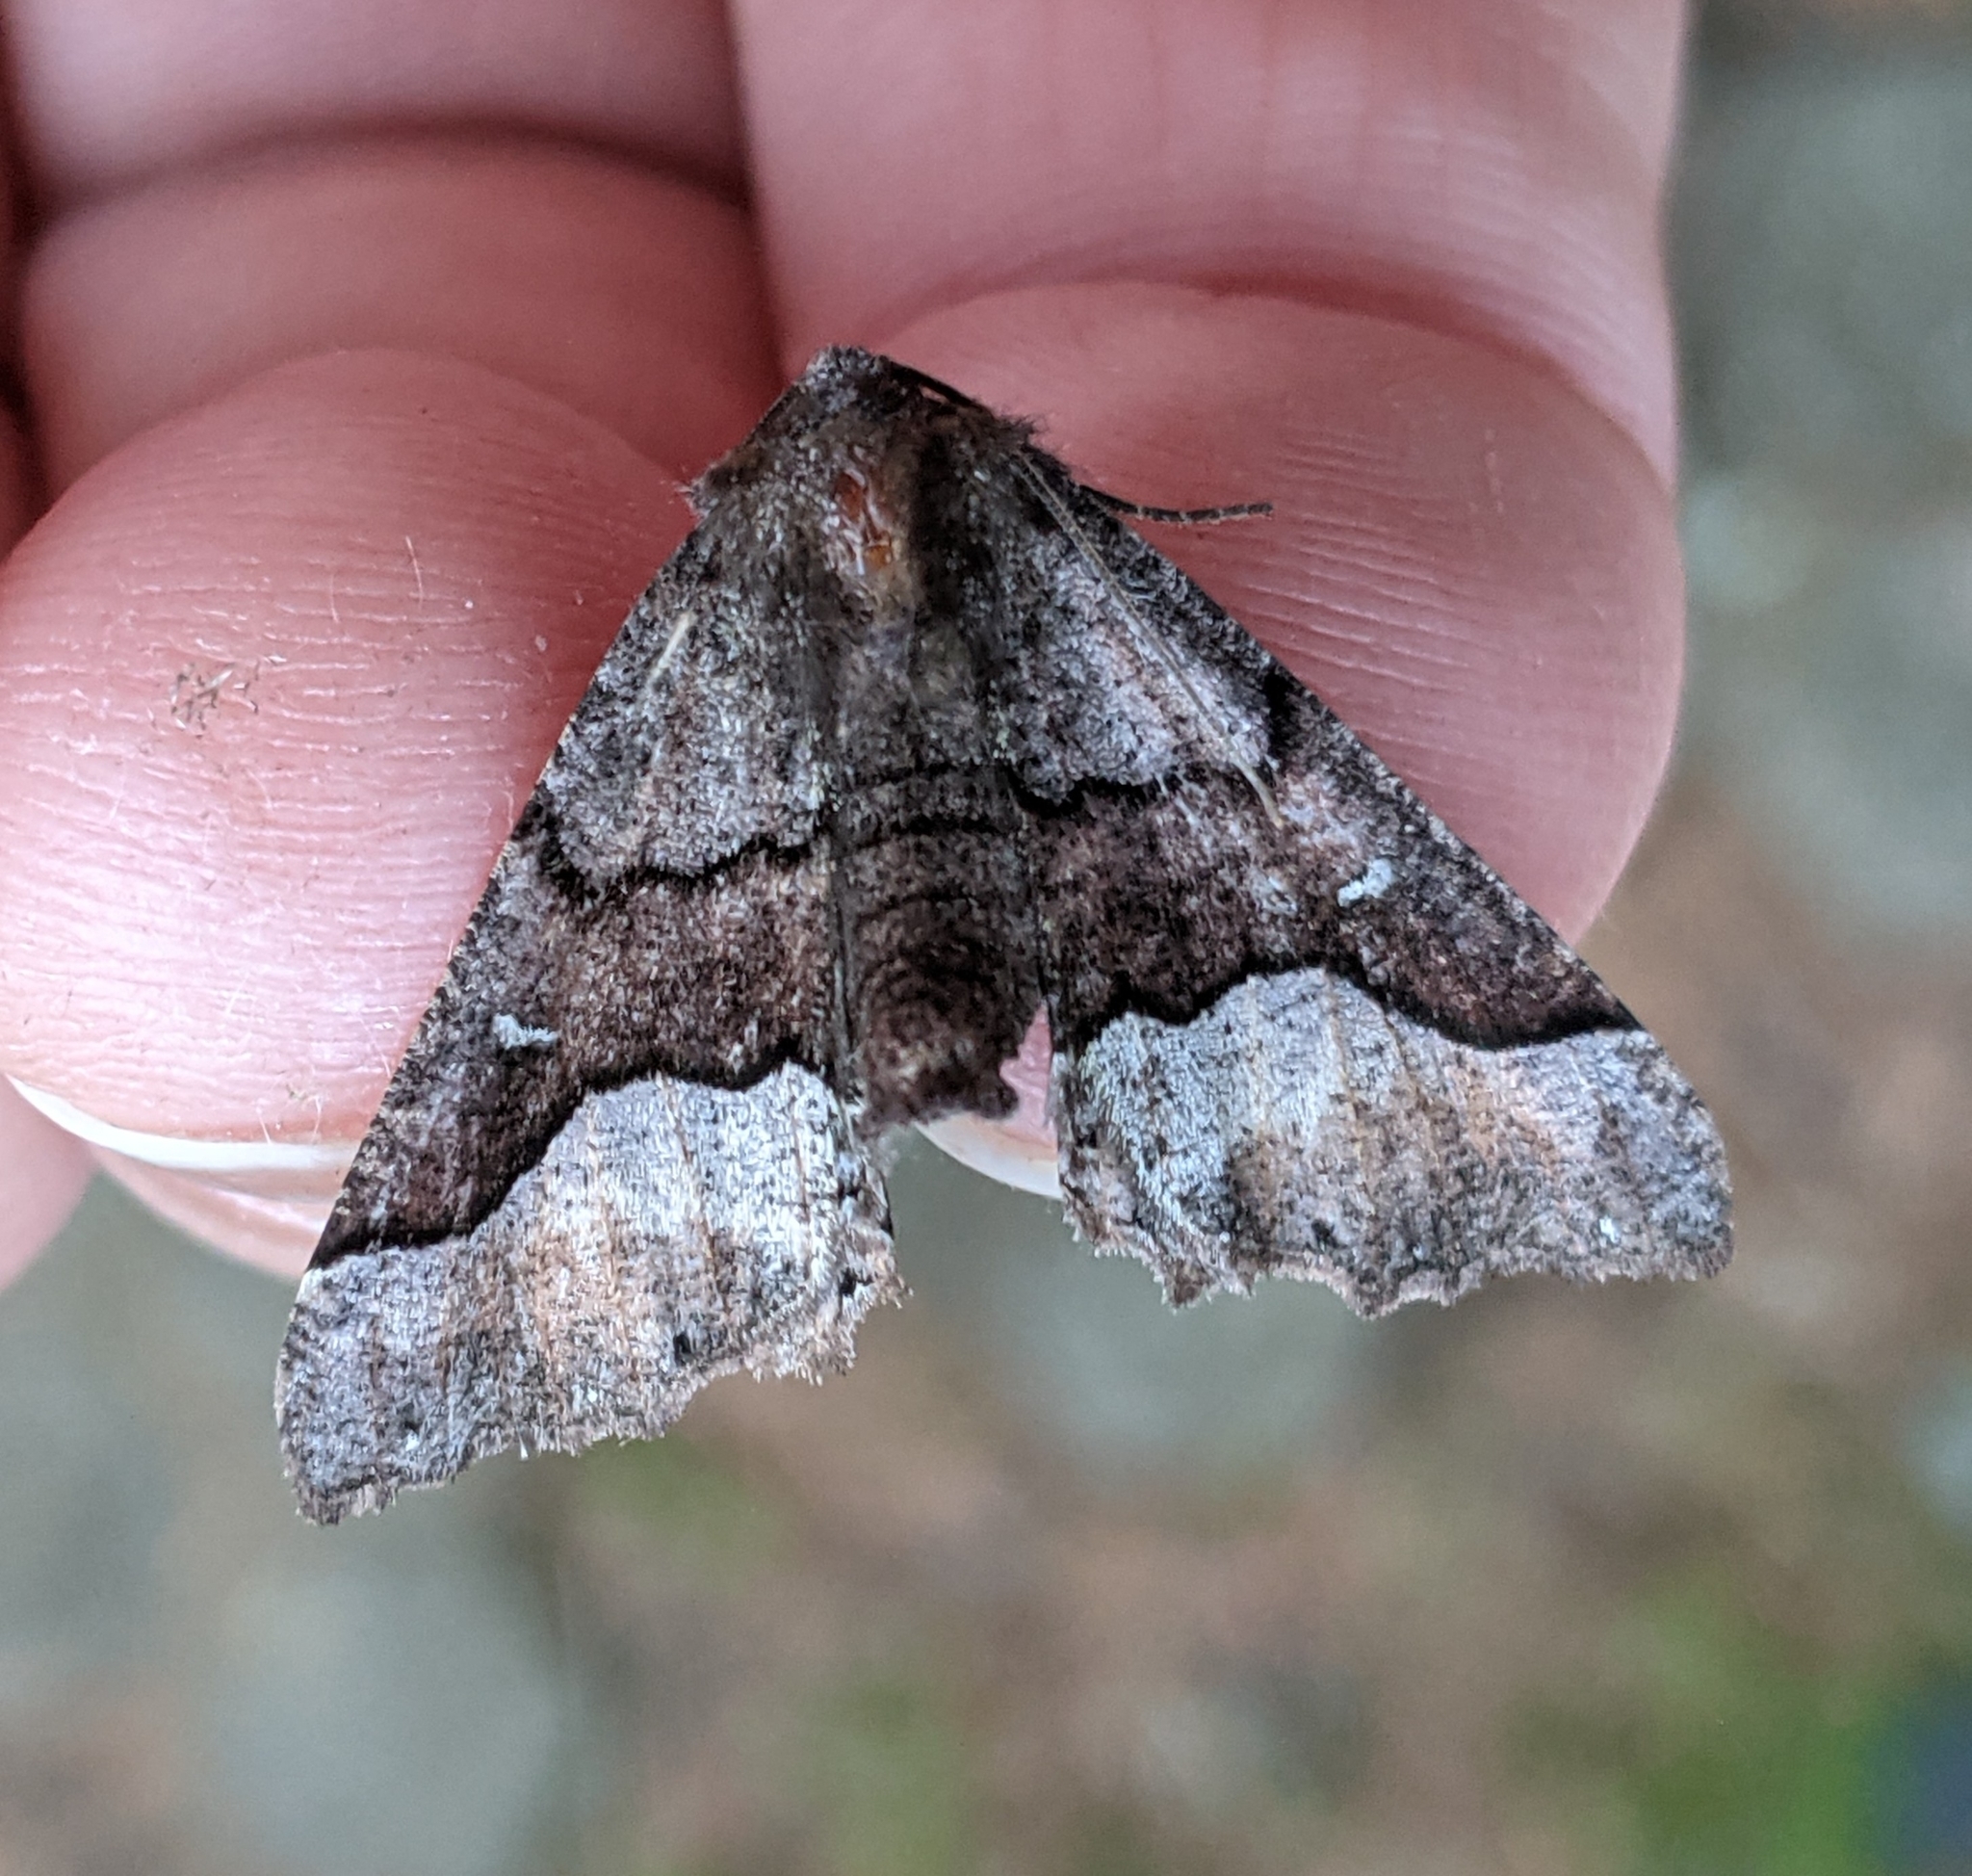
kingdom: Animalia
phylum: Arthropoda
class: Insecta
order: Lepidoptera
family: Geometridae
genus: Pero
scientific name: Pero behrensaria
